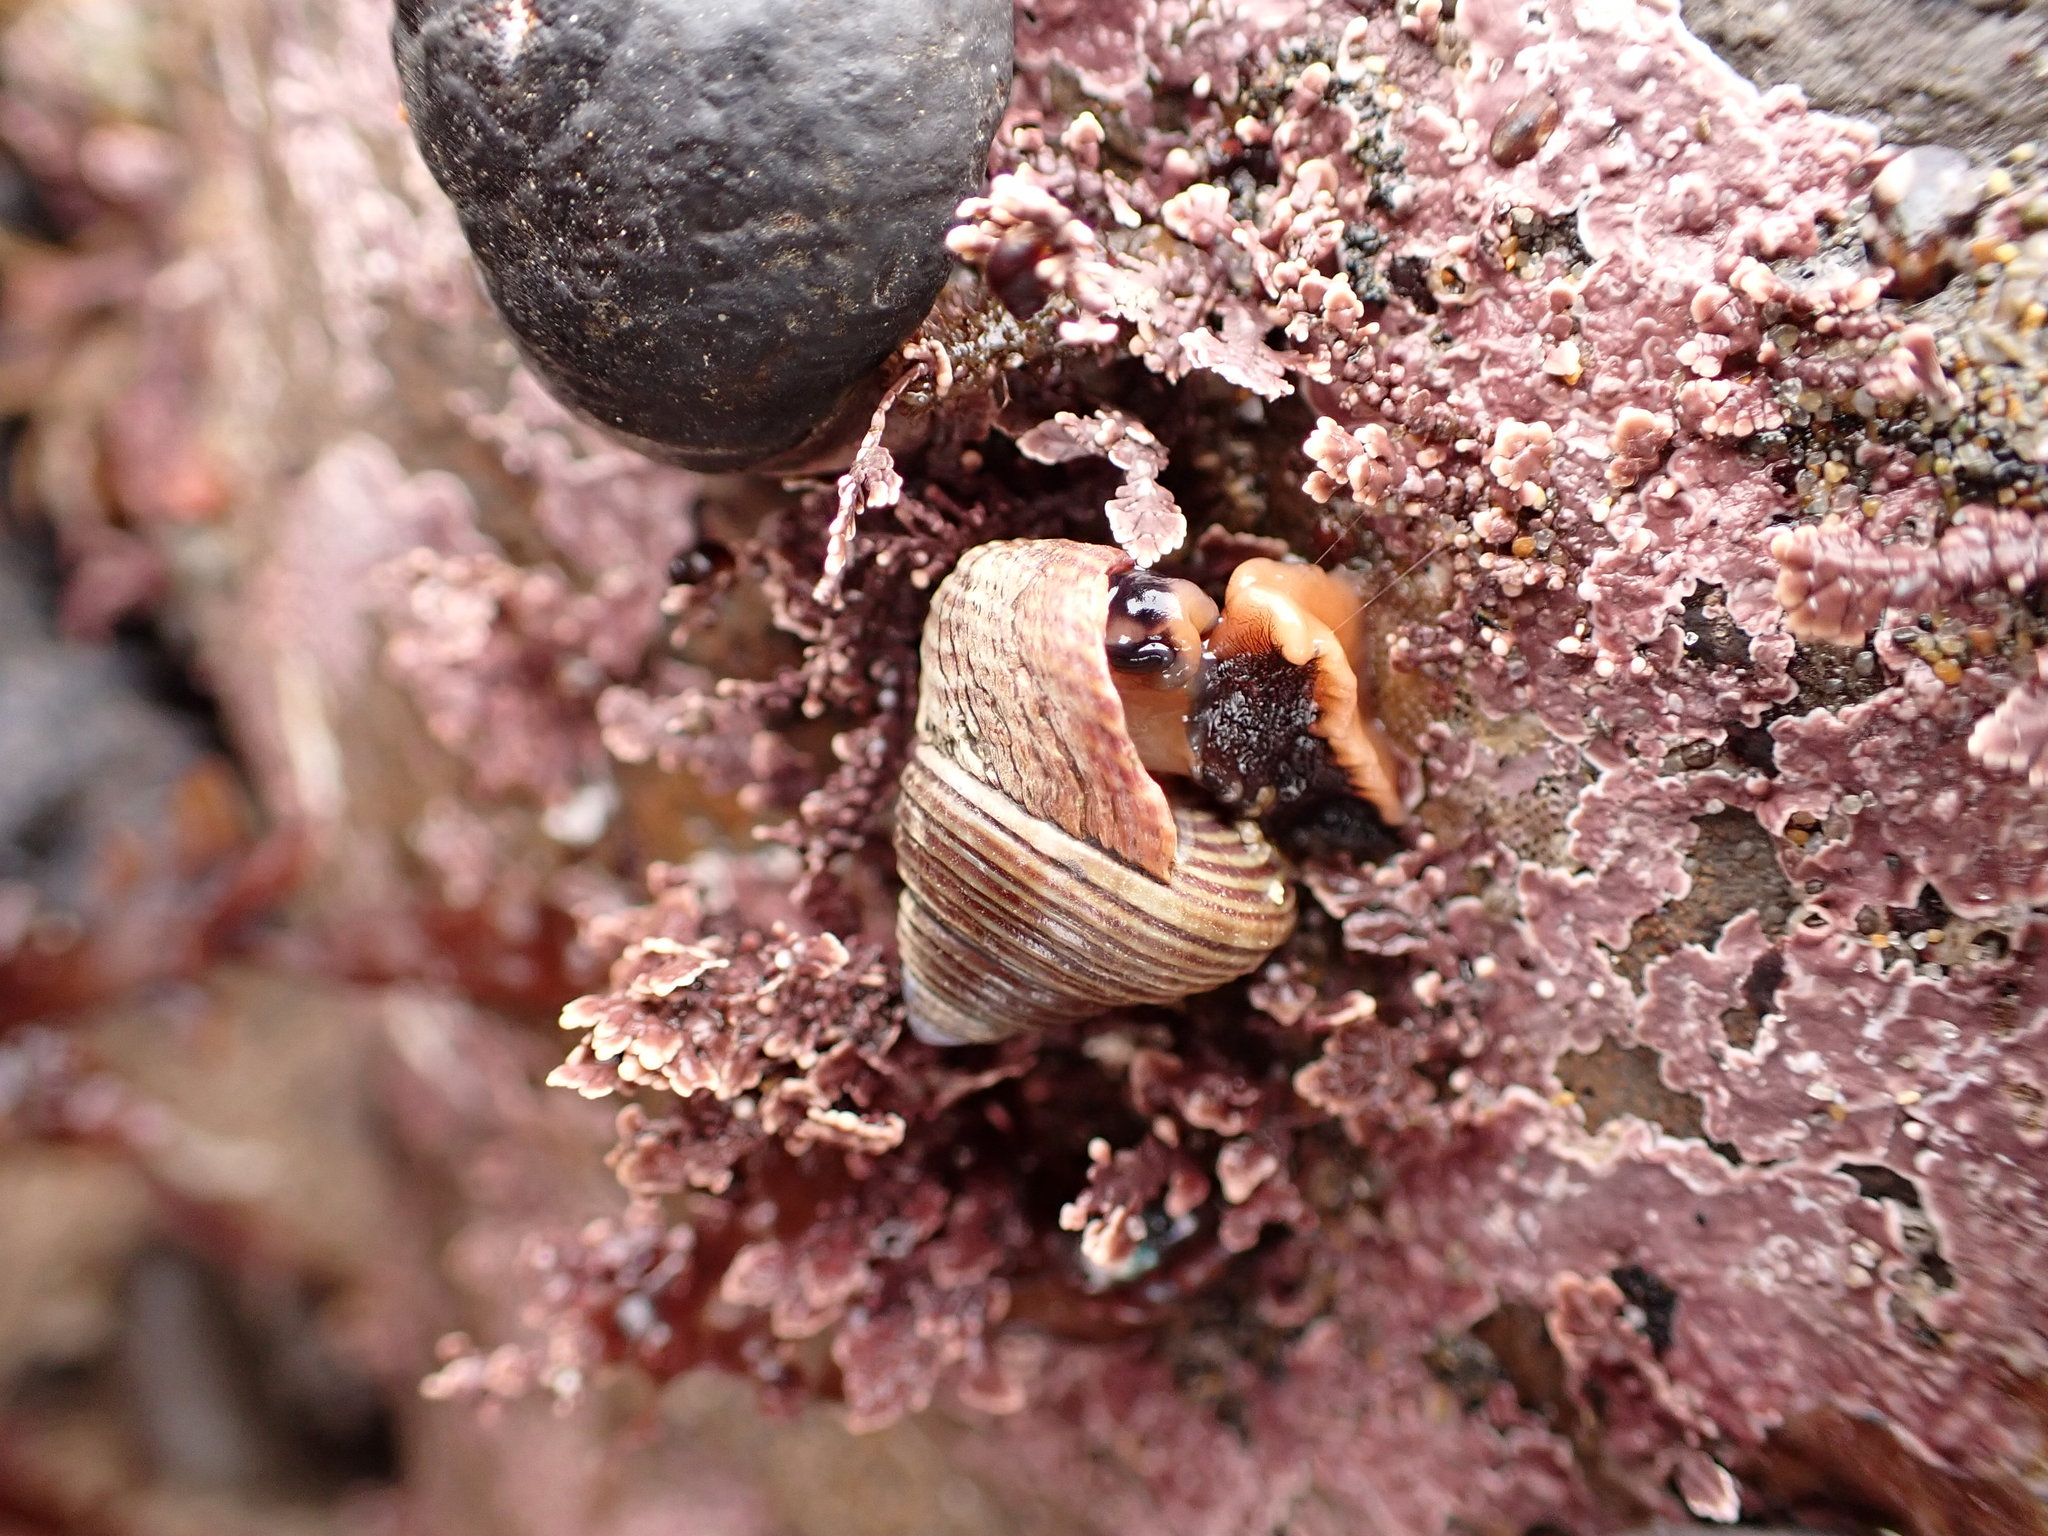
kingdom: Animalia
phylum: Mollusca
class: Gastropoda
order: Trochida
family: Calliostomatidae
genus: Calliostoma
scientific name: Calliostoma ligatum
